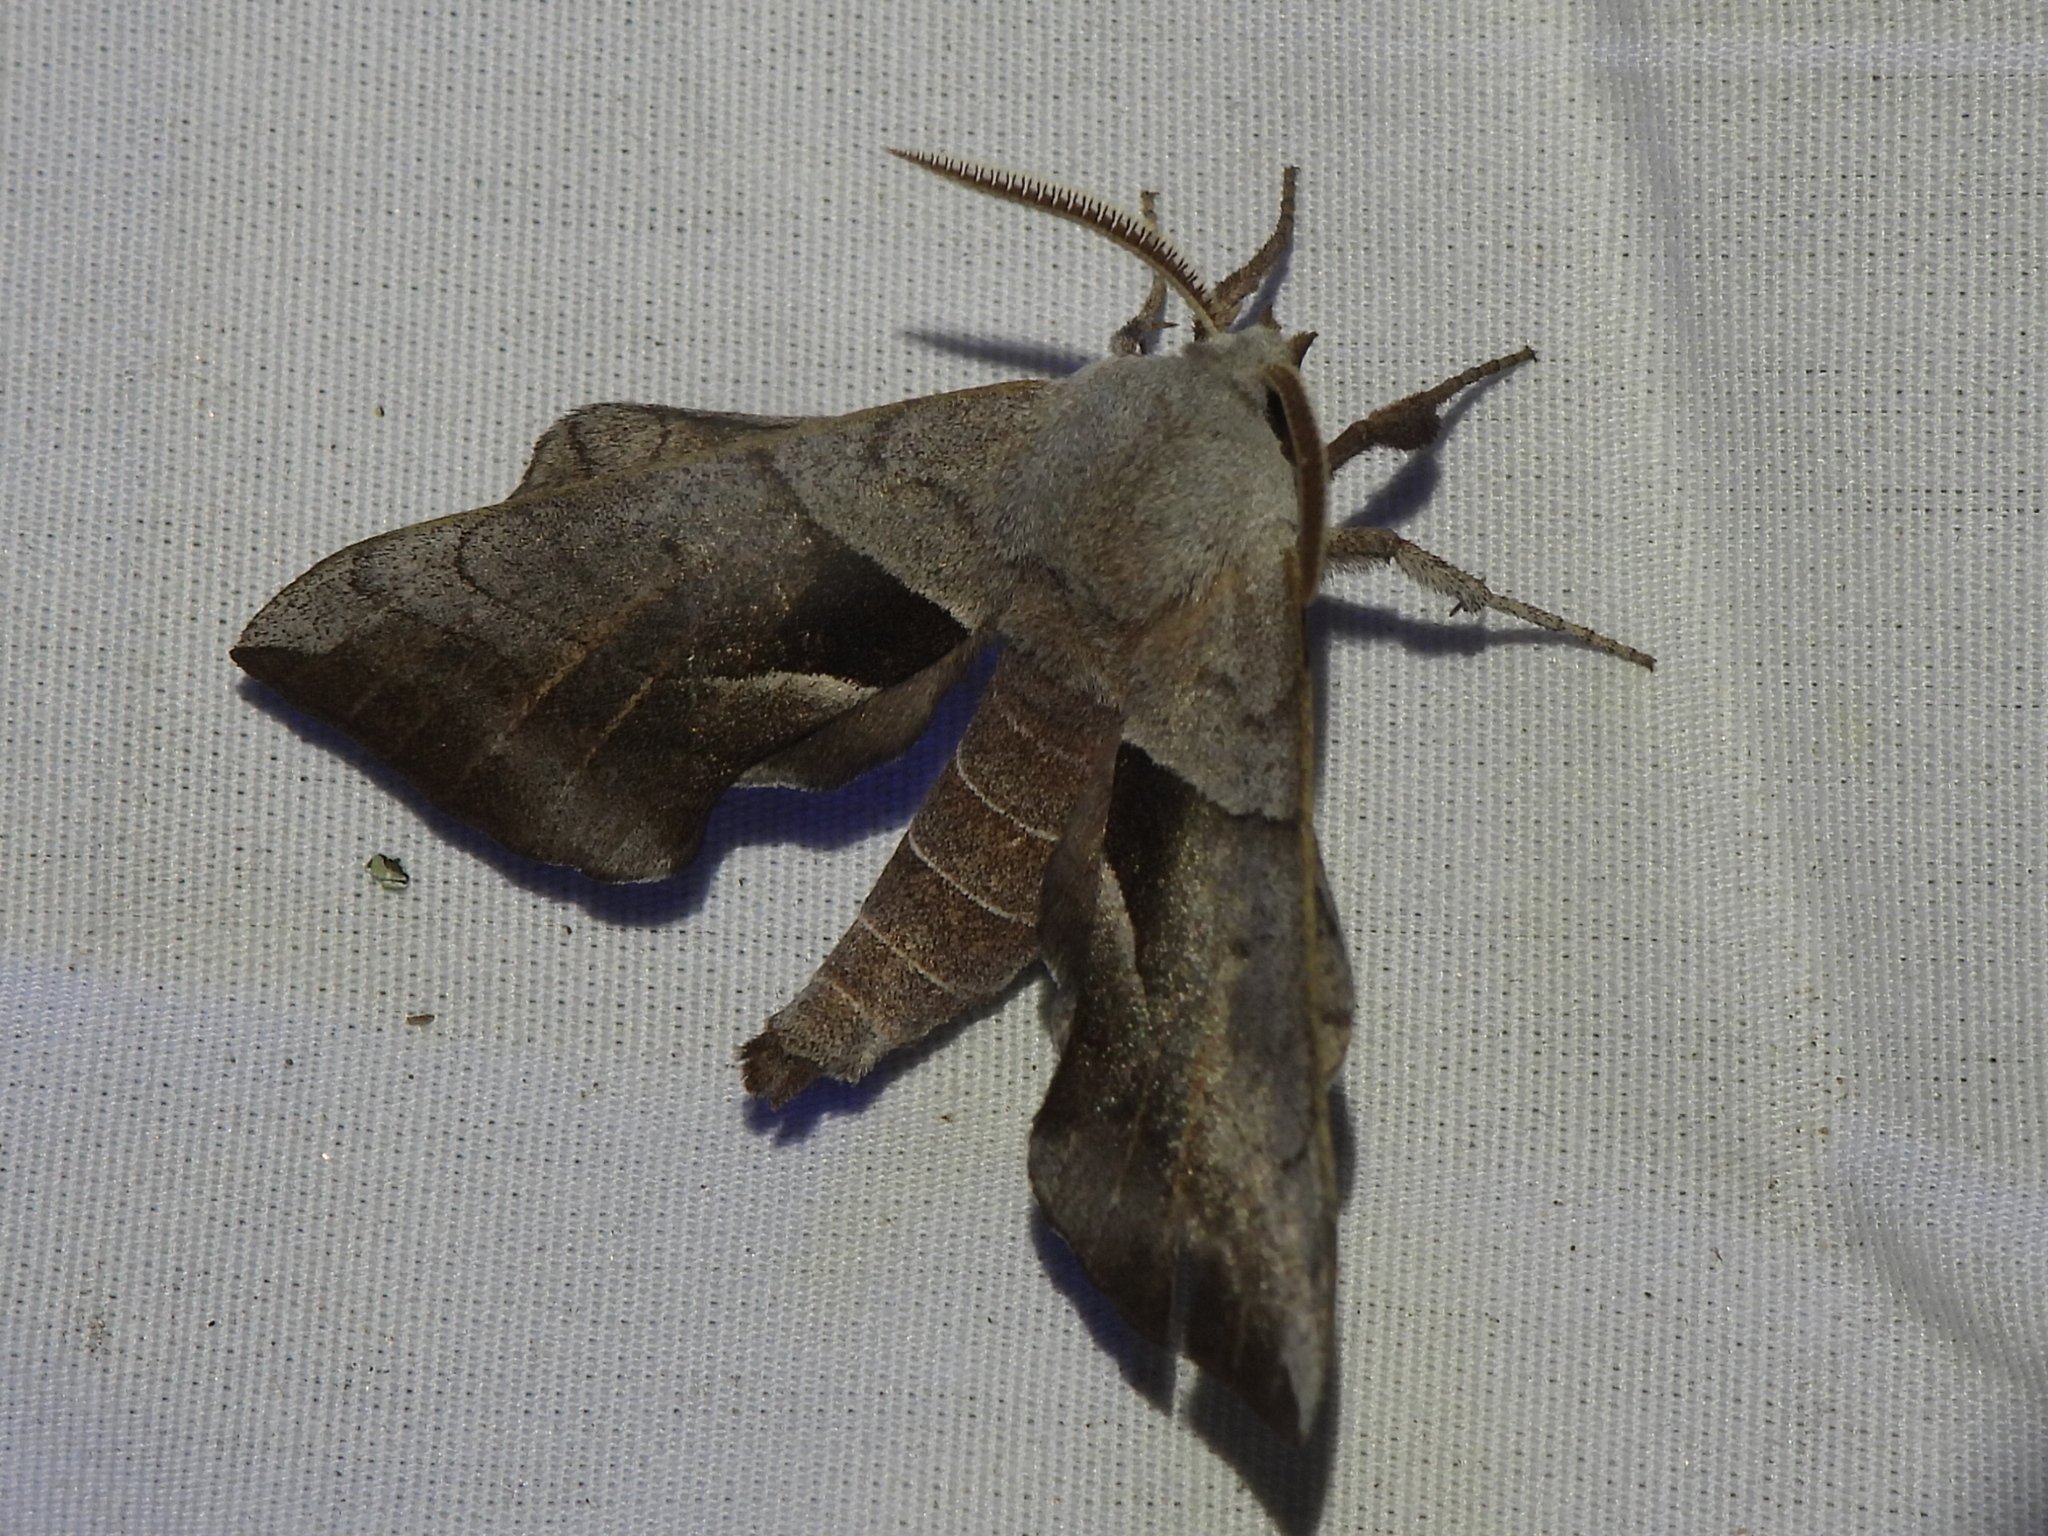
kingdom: Animalia
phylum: Arthropoda
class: Insecta
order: Lepidoptera
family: Sphingidae
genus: Amorpha
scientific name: Amorpha juglandis
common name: Walnut sphinx
